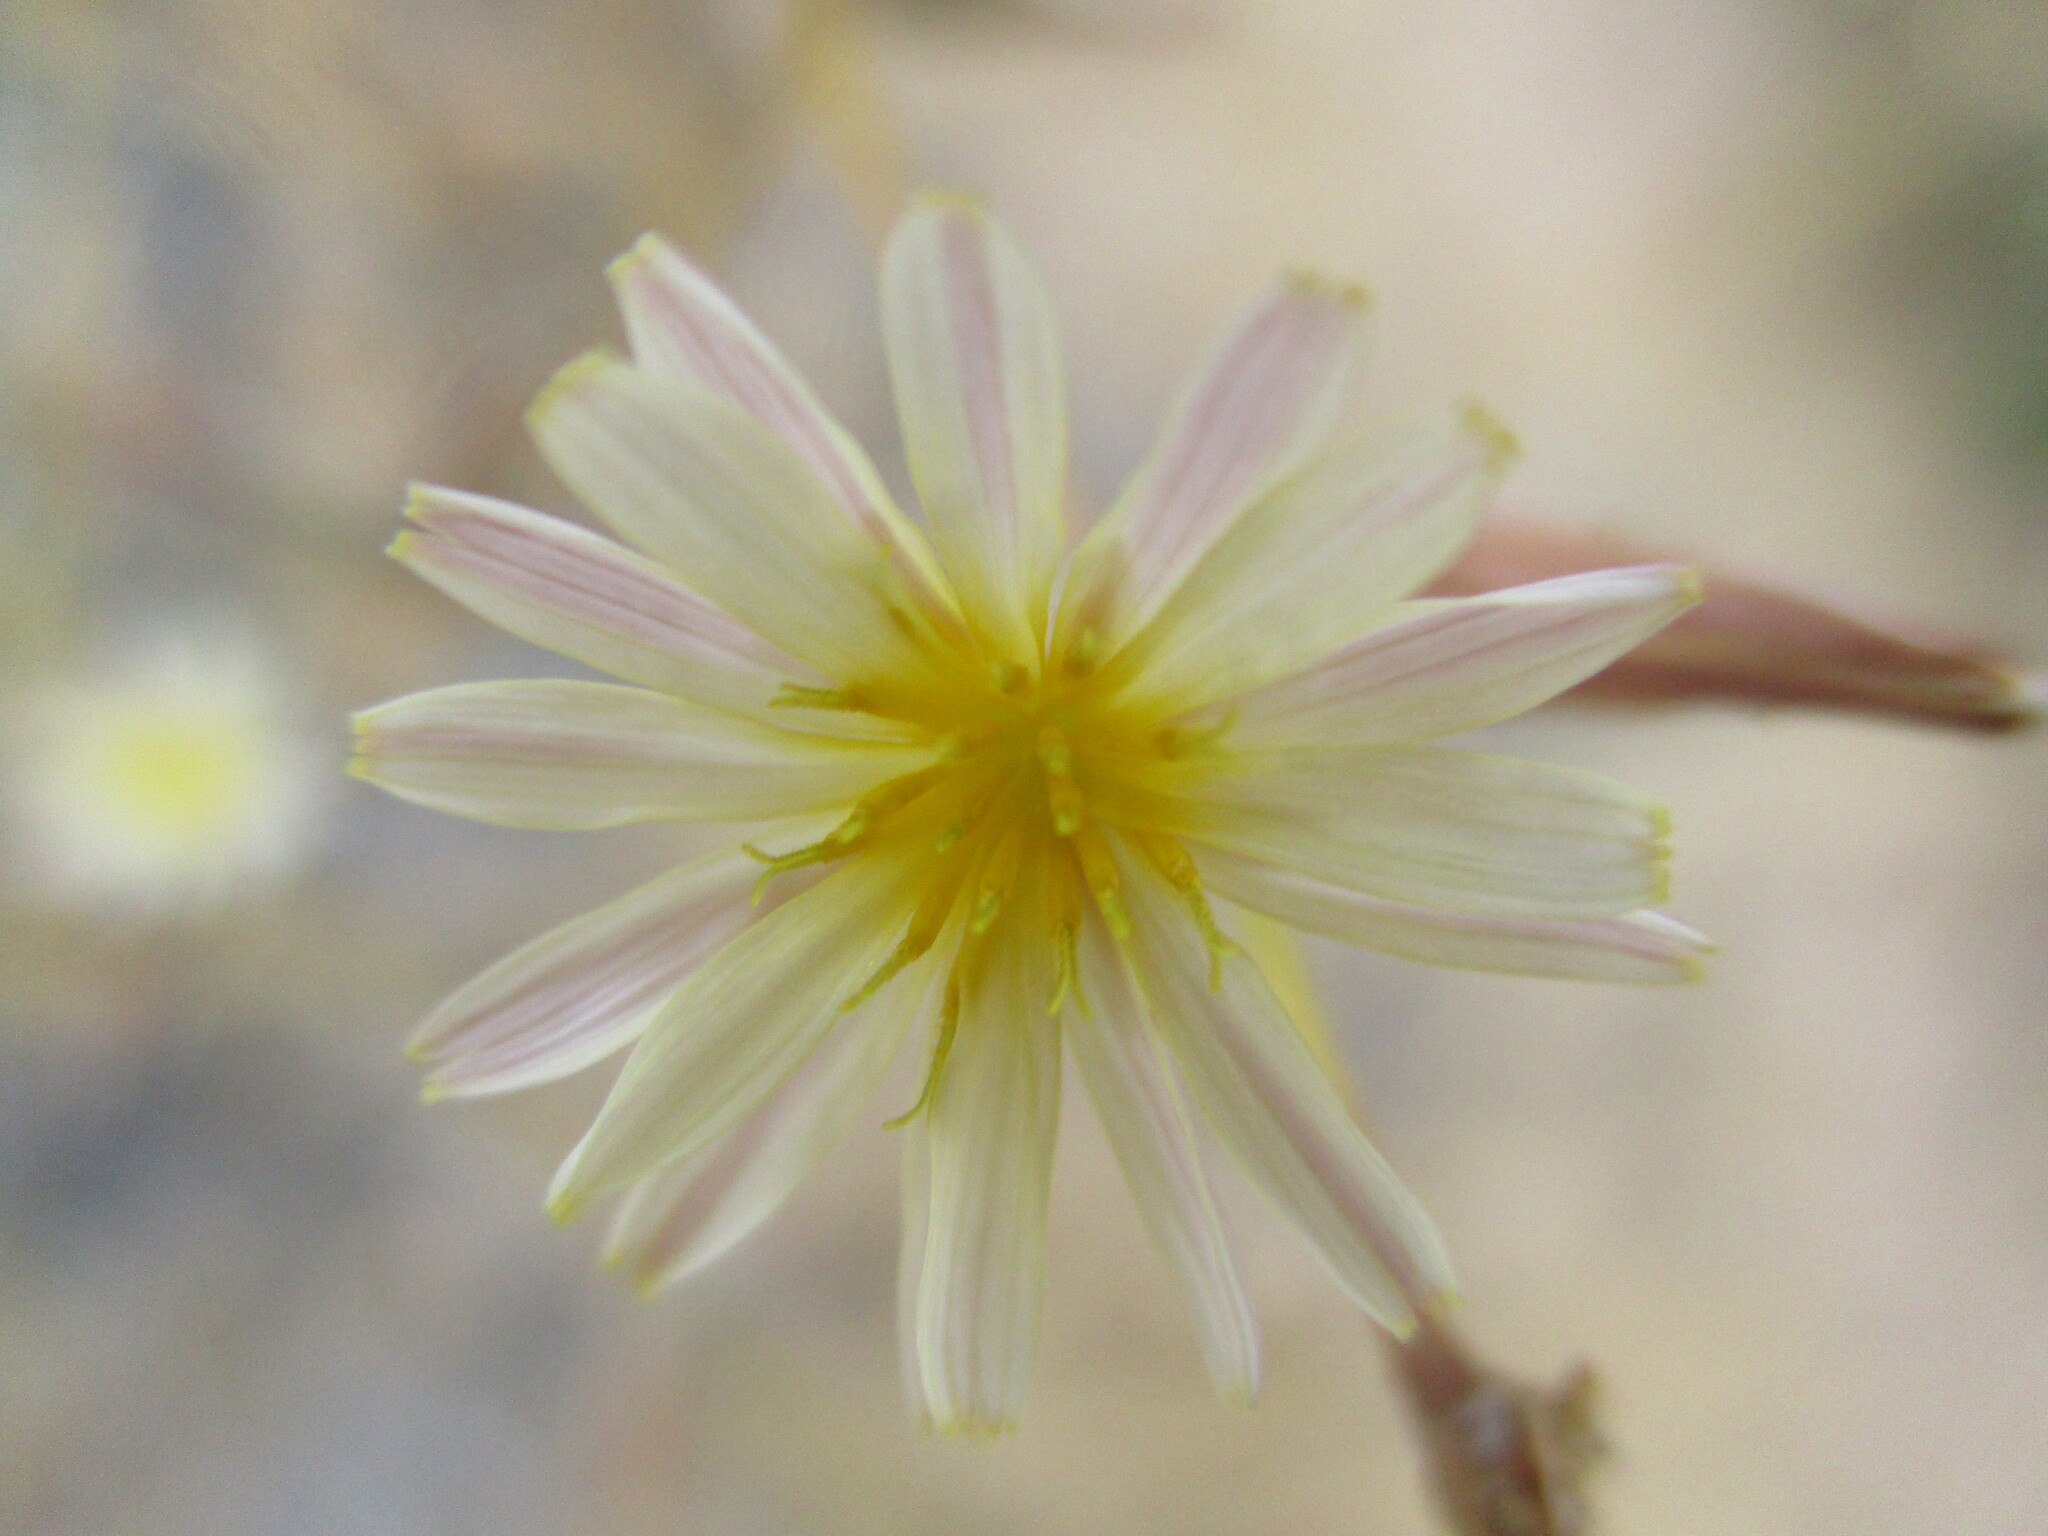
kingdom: Plantae
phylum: Tracheophyta
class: Magnoliopsida
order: Asterales
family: Asteraceae
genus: Launaea
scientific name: Launaea intybacea
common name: Achicoria azul
